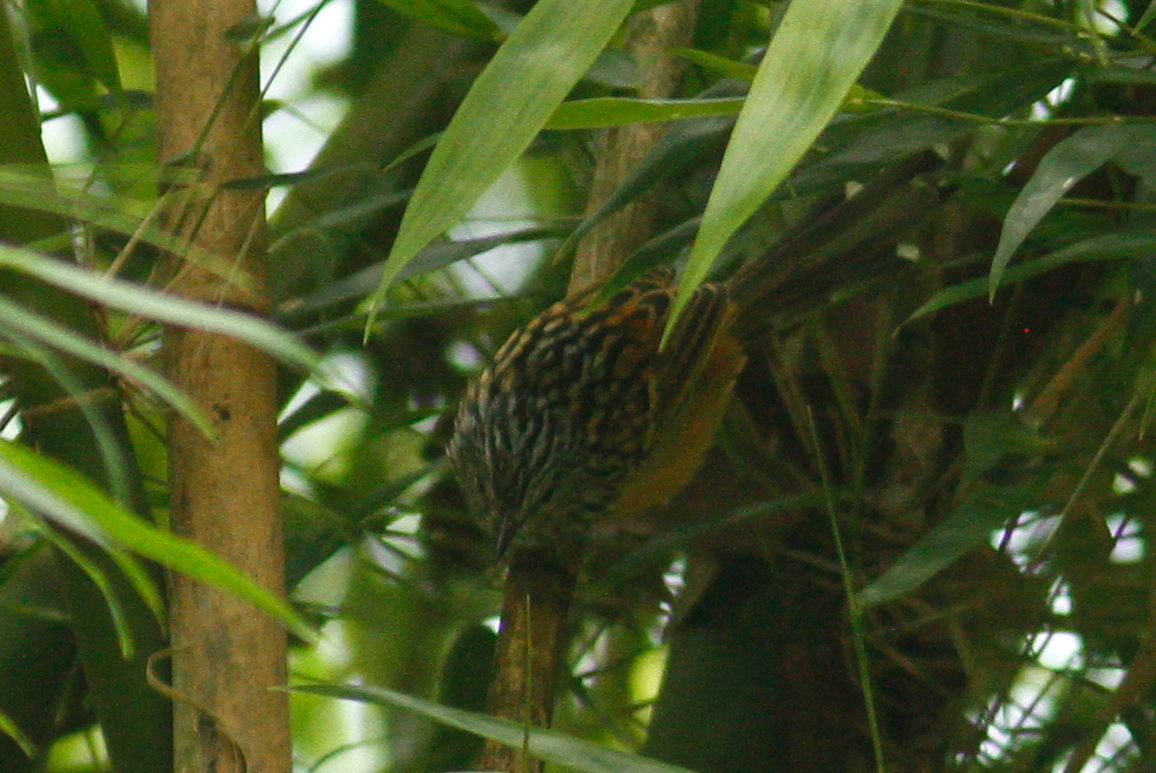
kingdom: Animalia
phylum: Chordata
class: Aves
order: Passeriformes
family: Thamnophilidae
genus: Drymophila
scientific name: Drymophila striaticeps
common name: Streak-headed antbird
